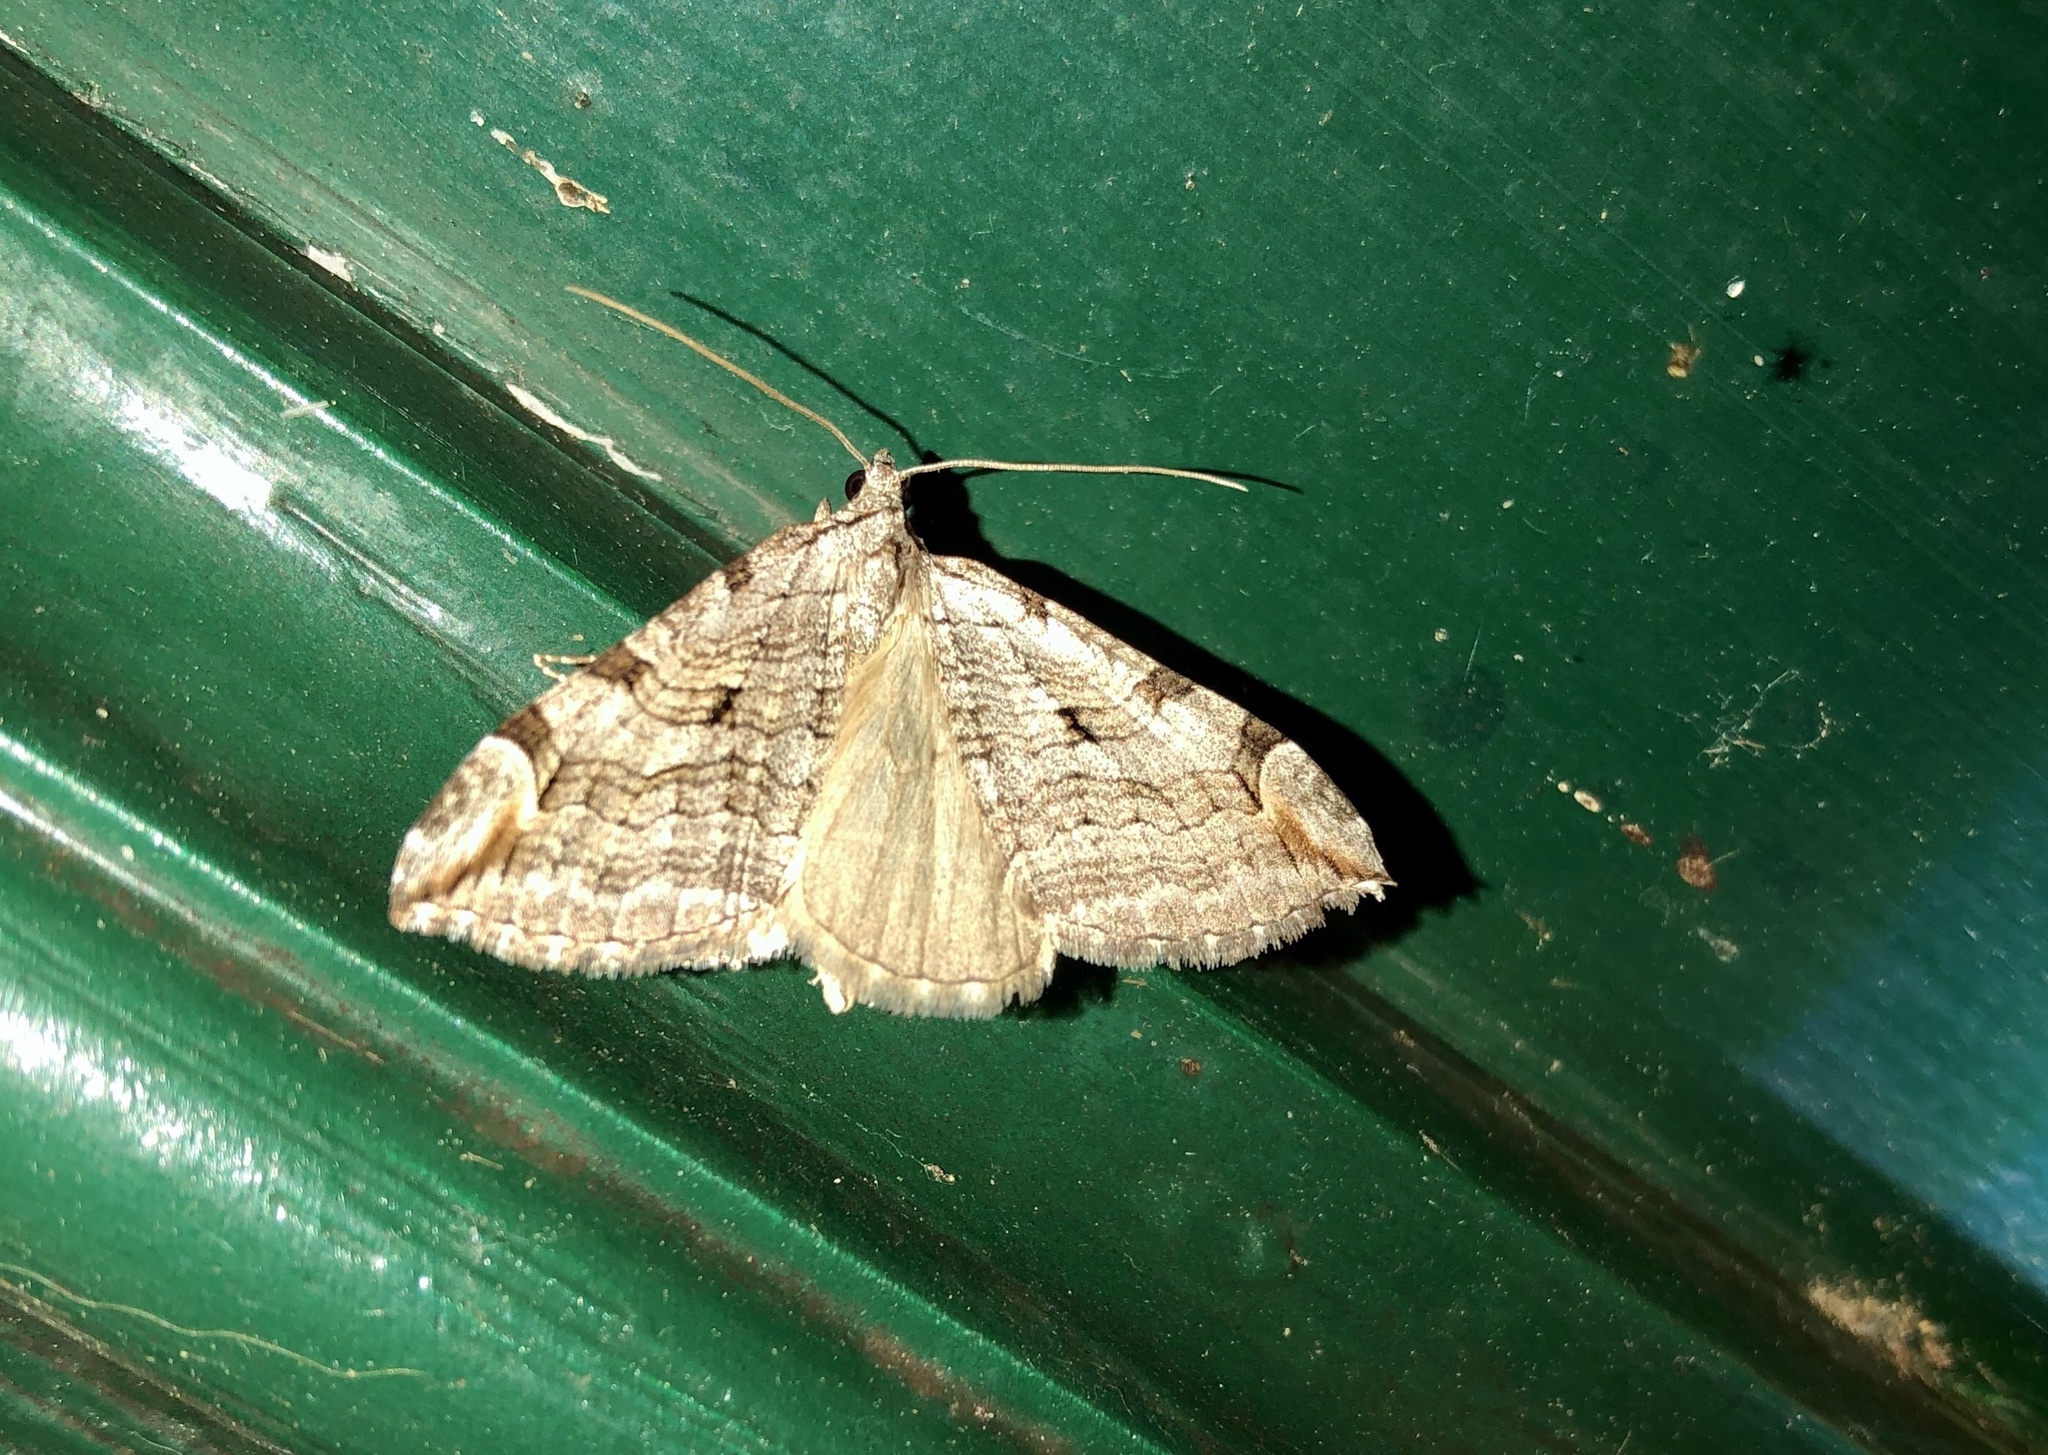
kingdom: Animalia
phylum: Arthropoda
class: Insecta
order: Lepidoptera
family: Geometridae
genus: Aplocera
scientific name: Aplocera plagiata
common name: Treble-bar
